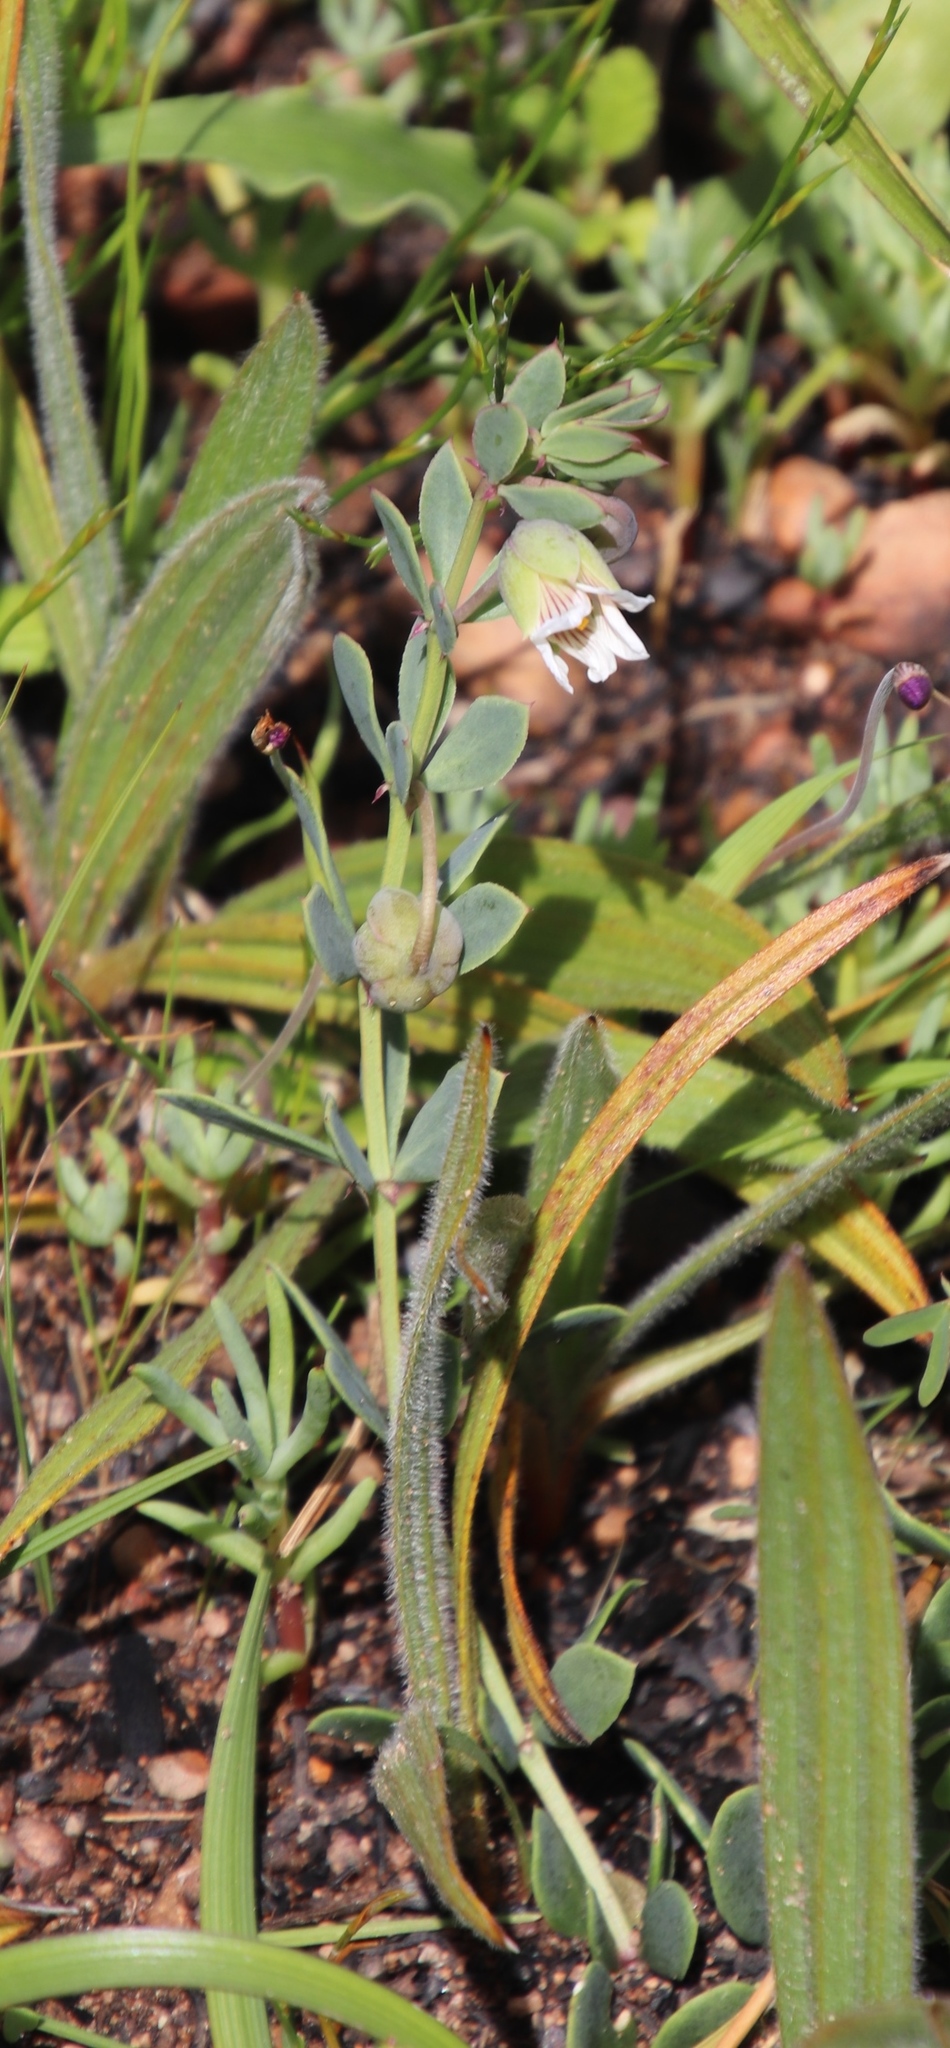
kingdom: Plantae
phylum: Tracheophyta
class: Magnoliopsida
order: Zygophyllales
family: Zygophyllaceae
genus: Roepera
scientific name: Roepera sessilifolia
